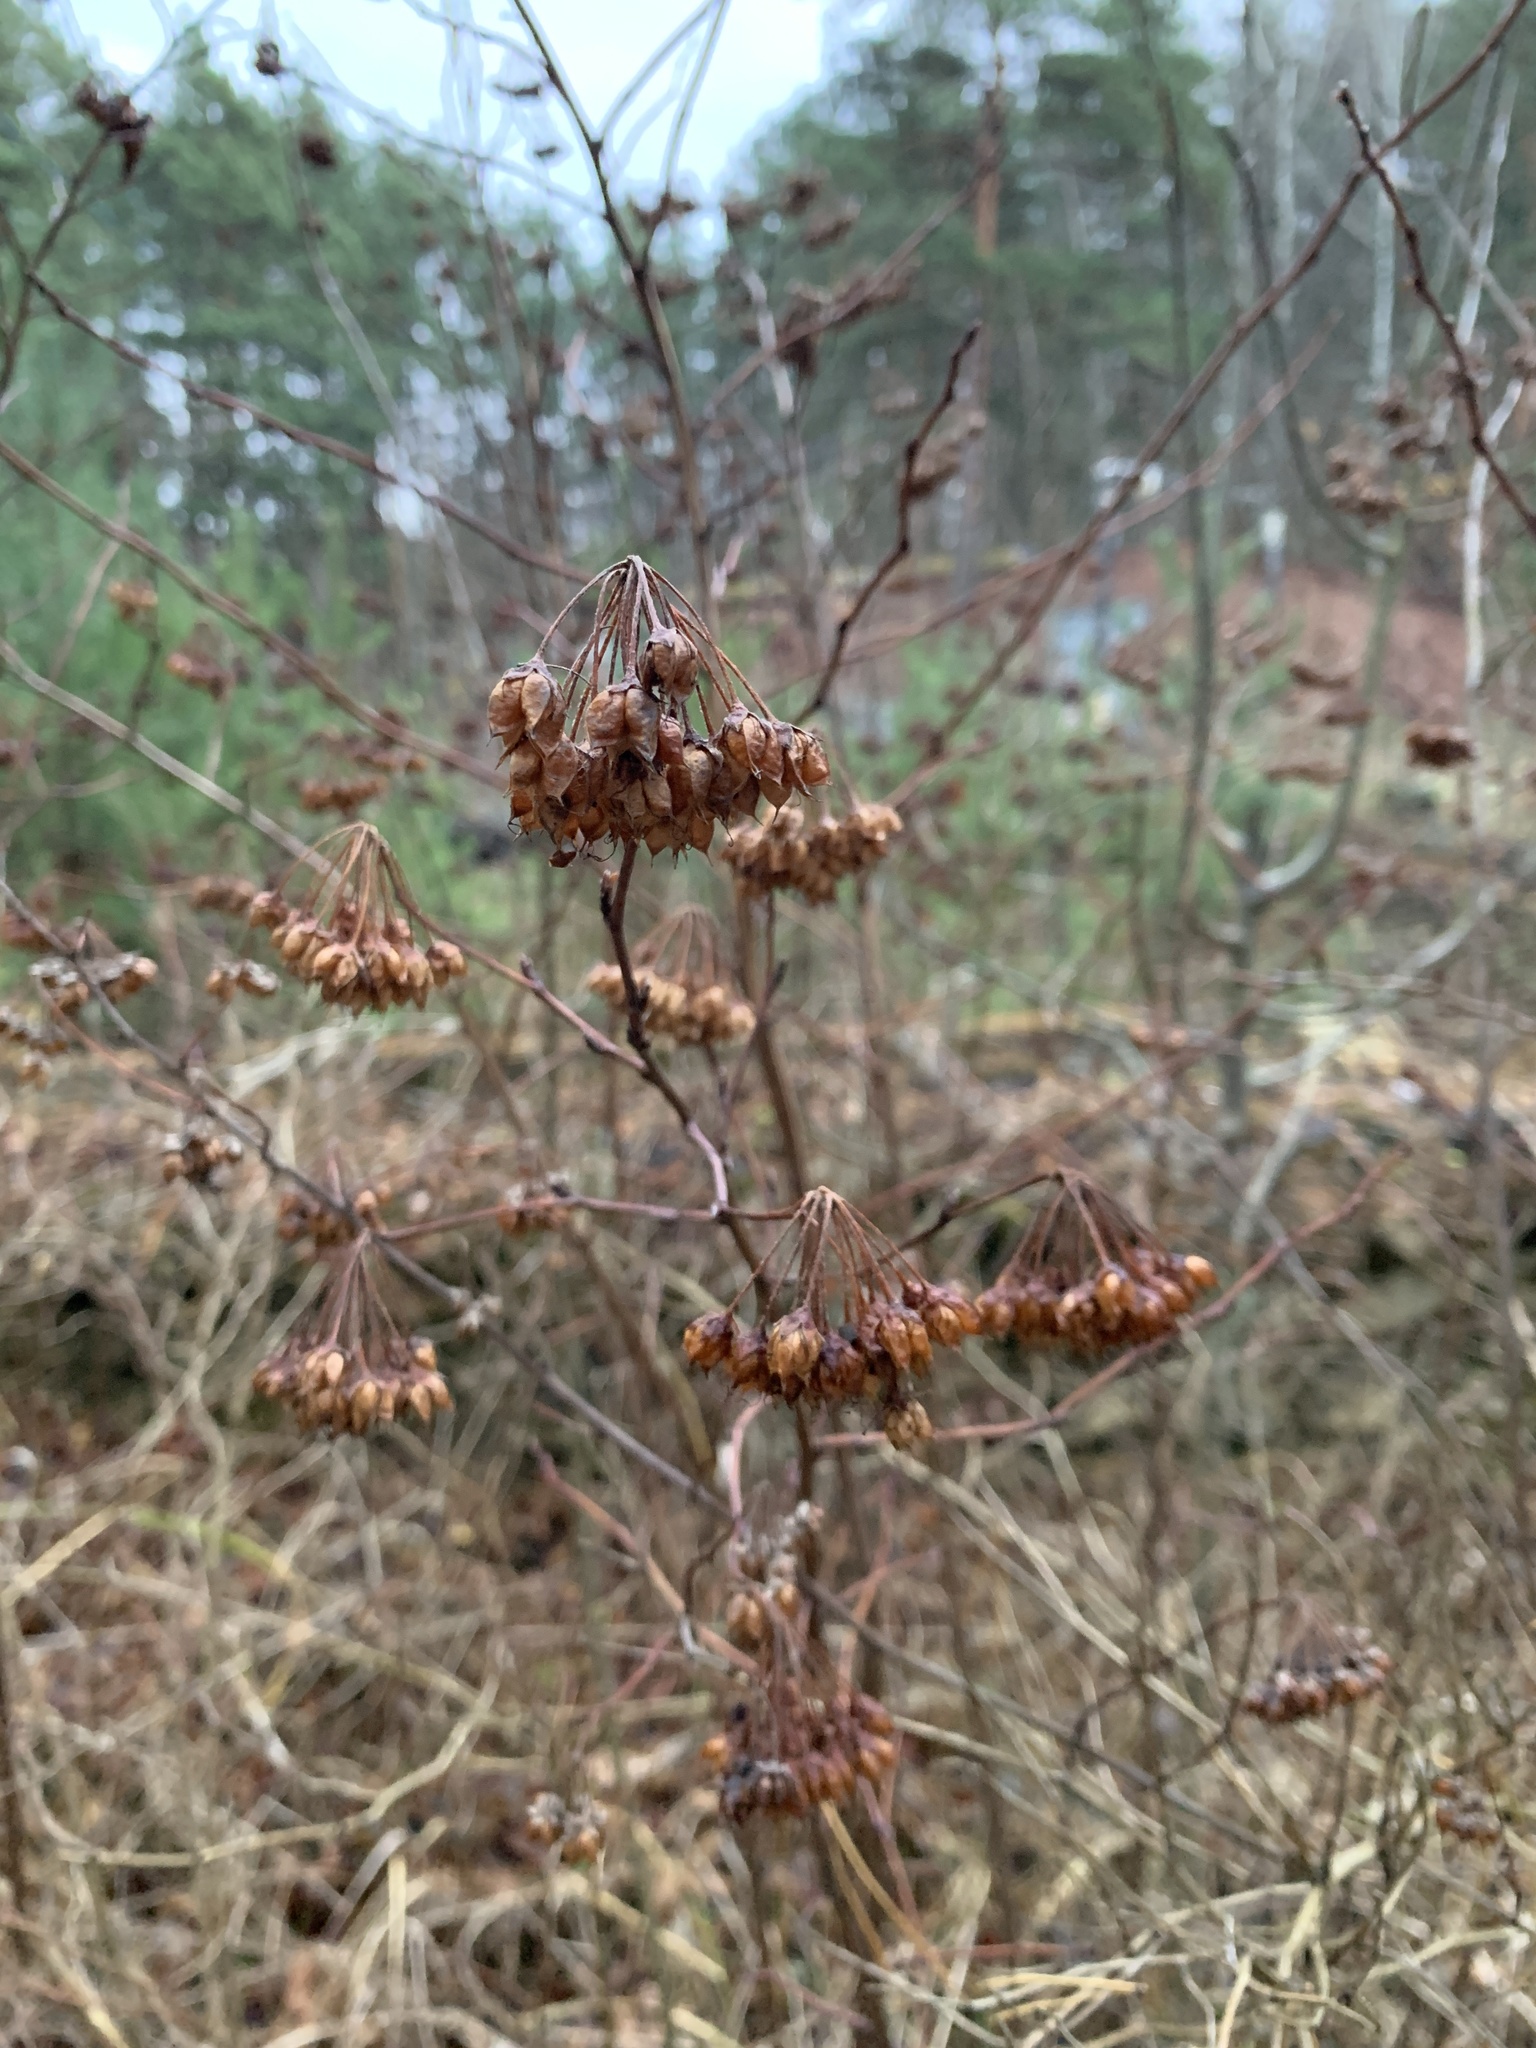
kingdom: Plantae
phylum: Tracheophyta
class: Magnoliopsida
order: Rosales
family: Rosaceae
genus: Physocarpus
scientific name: Physocarpus opulifolius
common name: Ninebark
